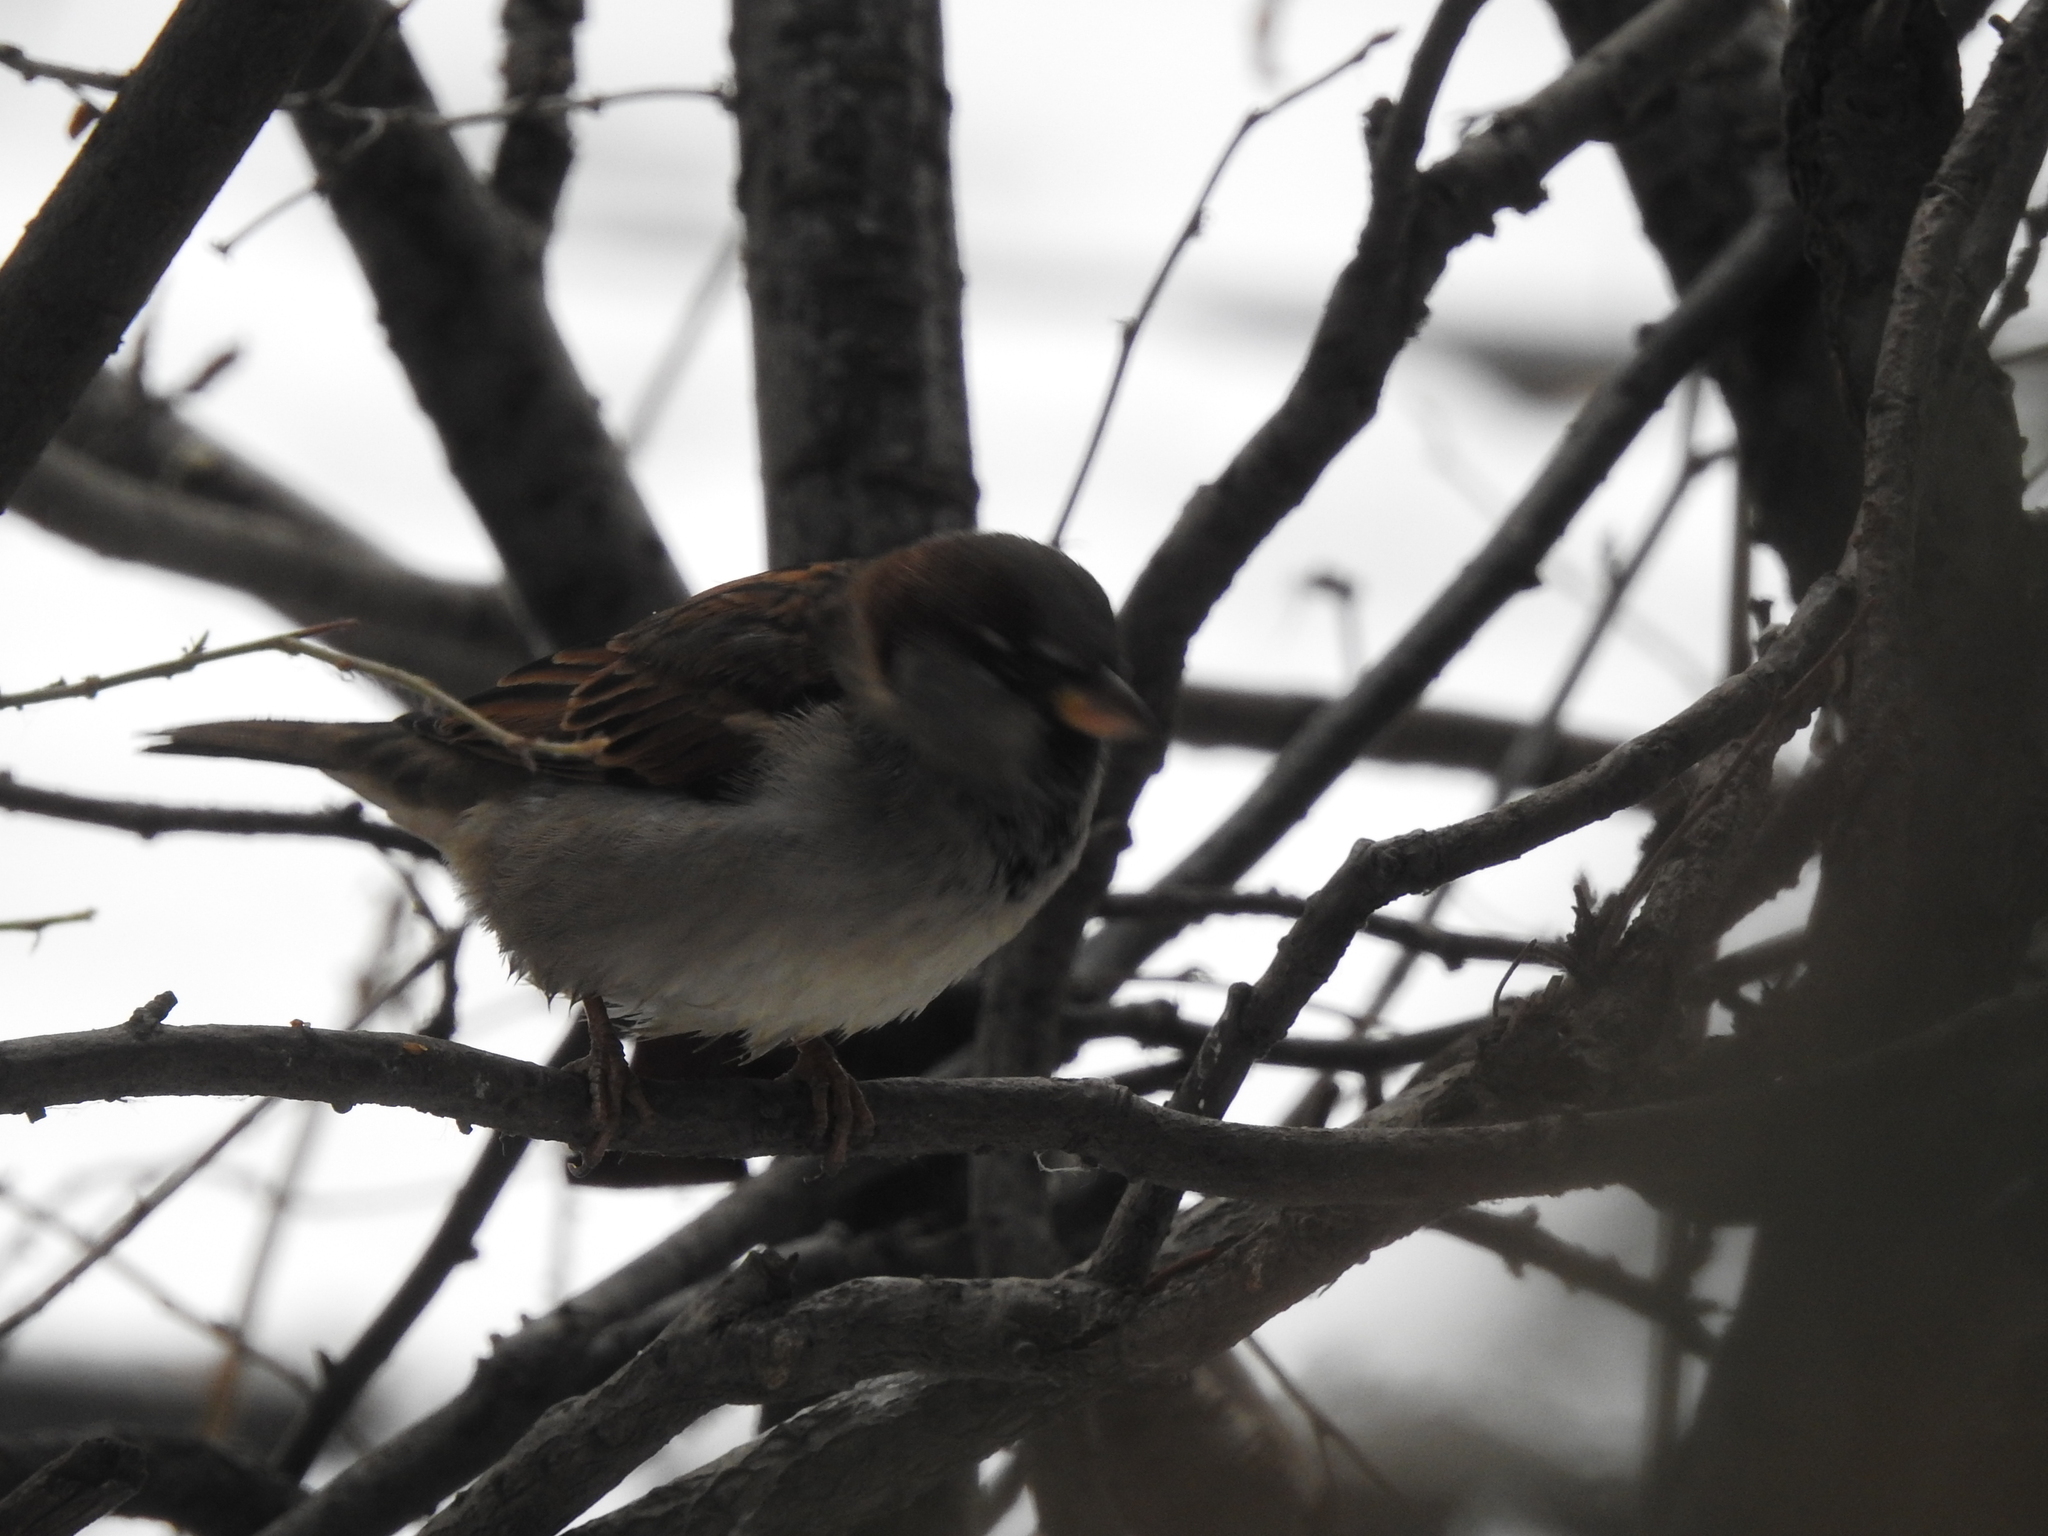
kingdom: Animalia
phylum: Chordata
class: Aves
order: Passeriformes
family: Passeridae
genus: Passer
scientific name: Passer domesticus
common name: House sparrow
